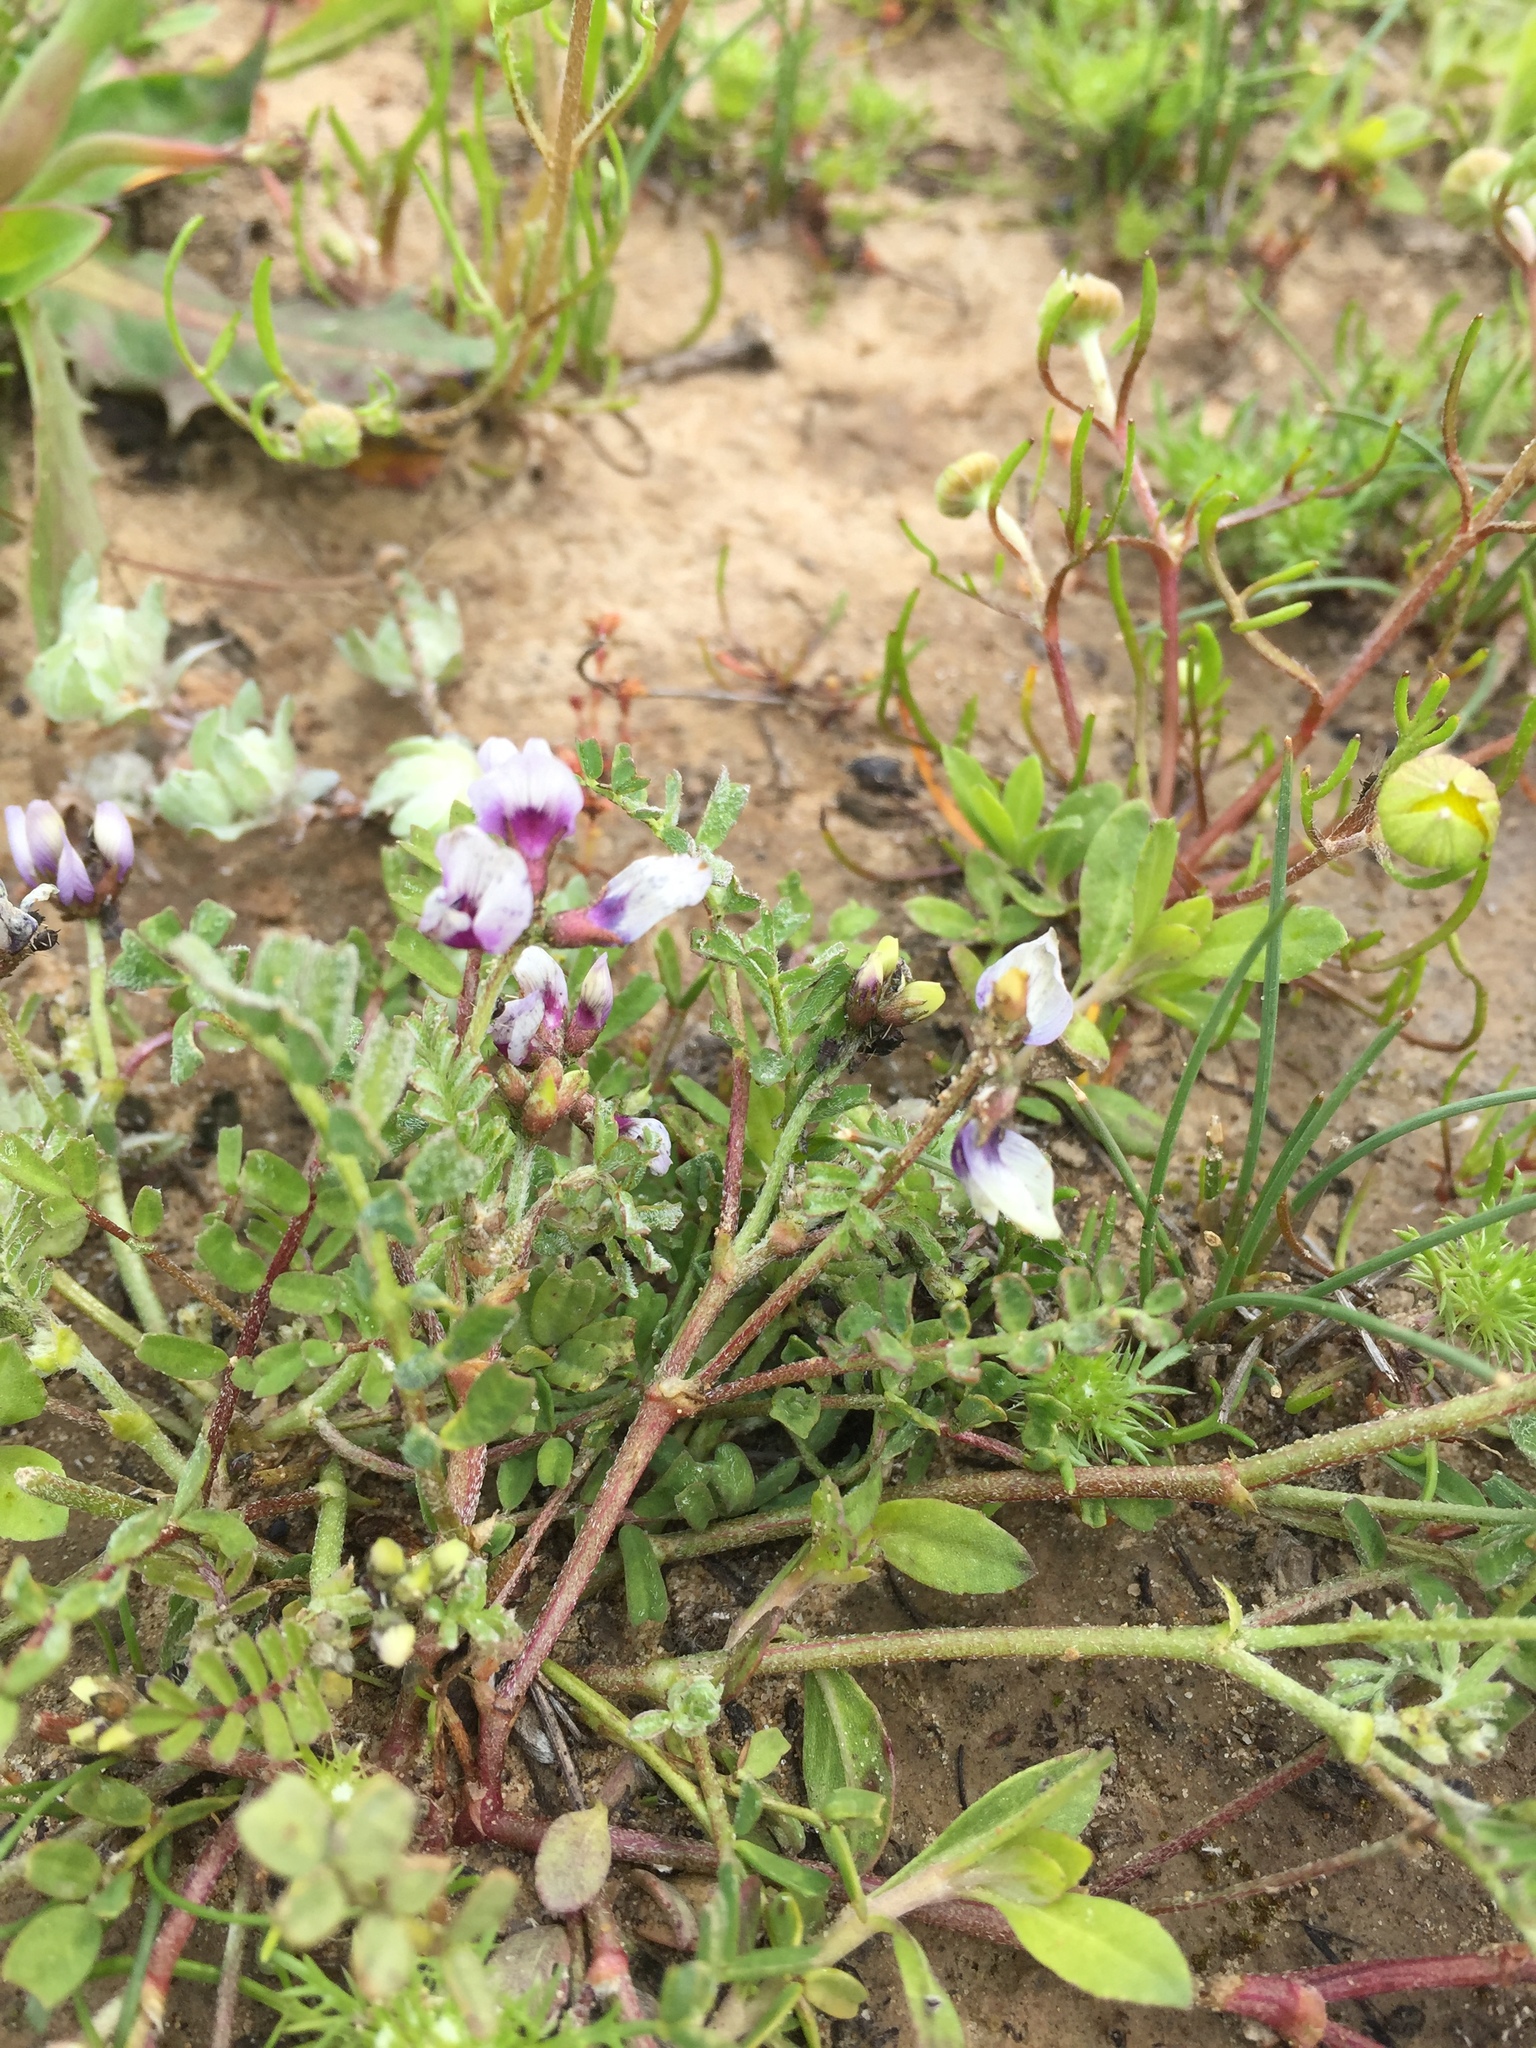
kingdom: Plantae
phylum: Tracheophyta
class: Magnoliopsida
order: Fabales
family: Fabaceae
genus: Astragalus
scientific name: Astragalus tener
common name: Gray slender milkvetch
